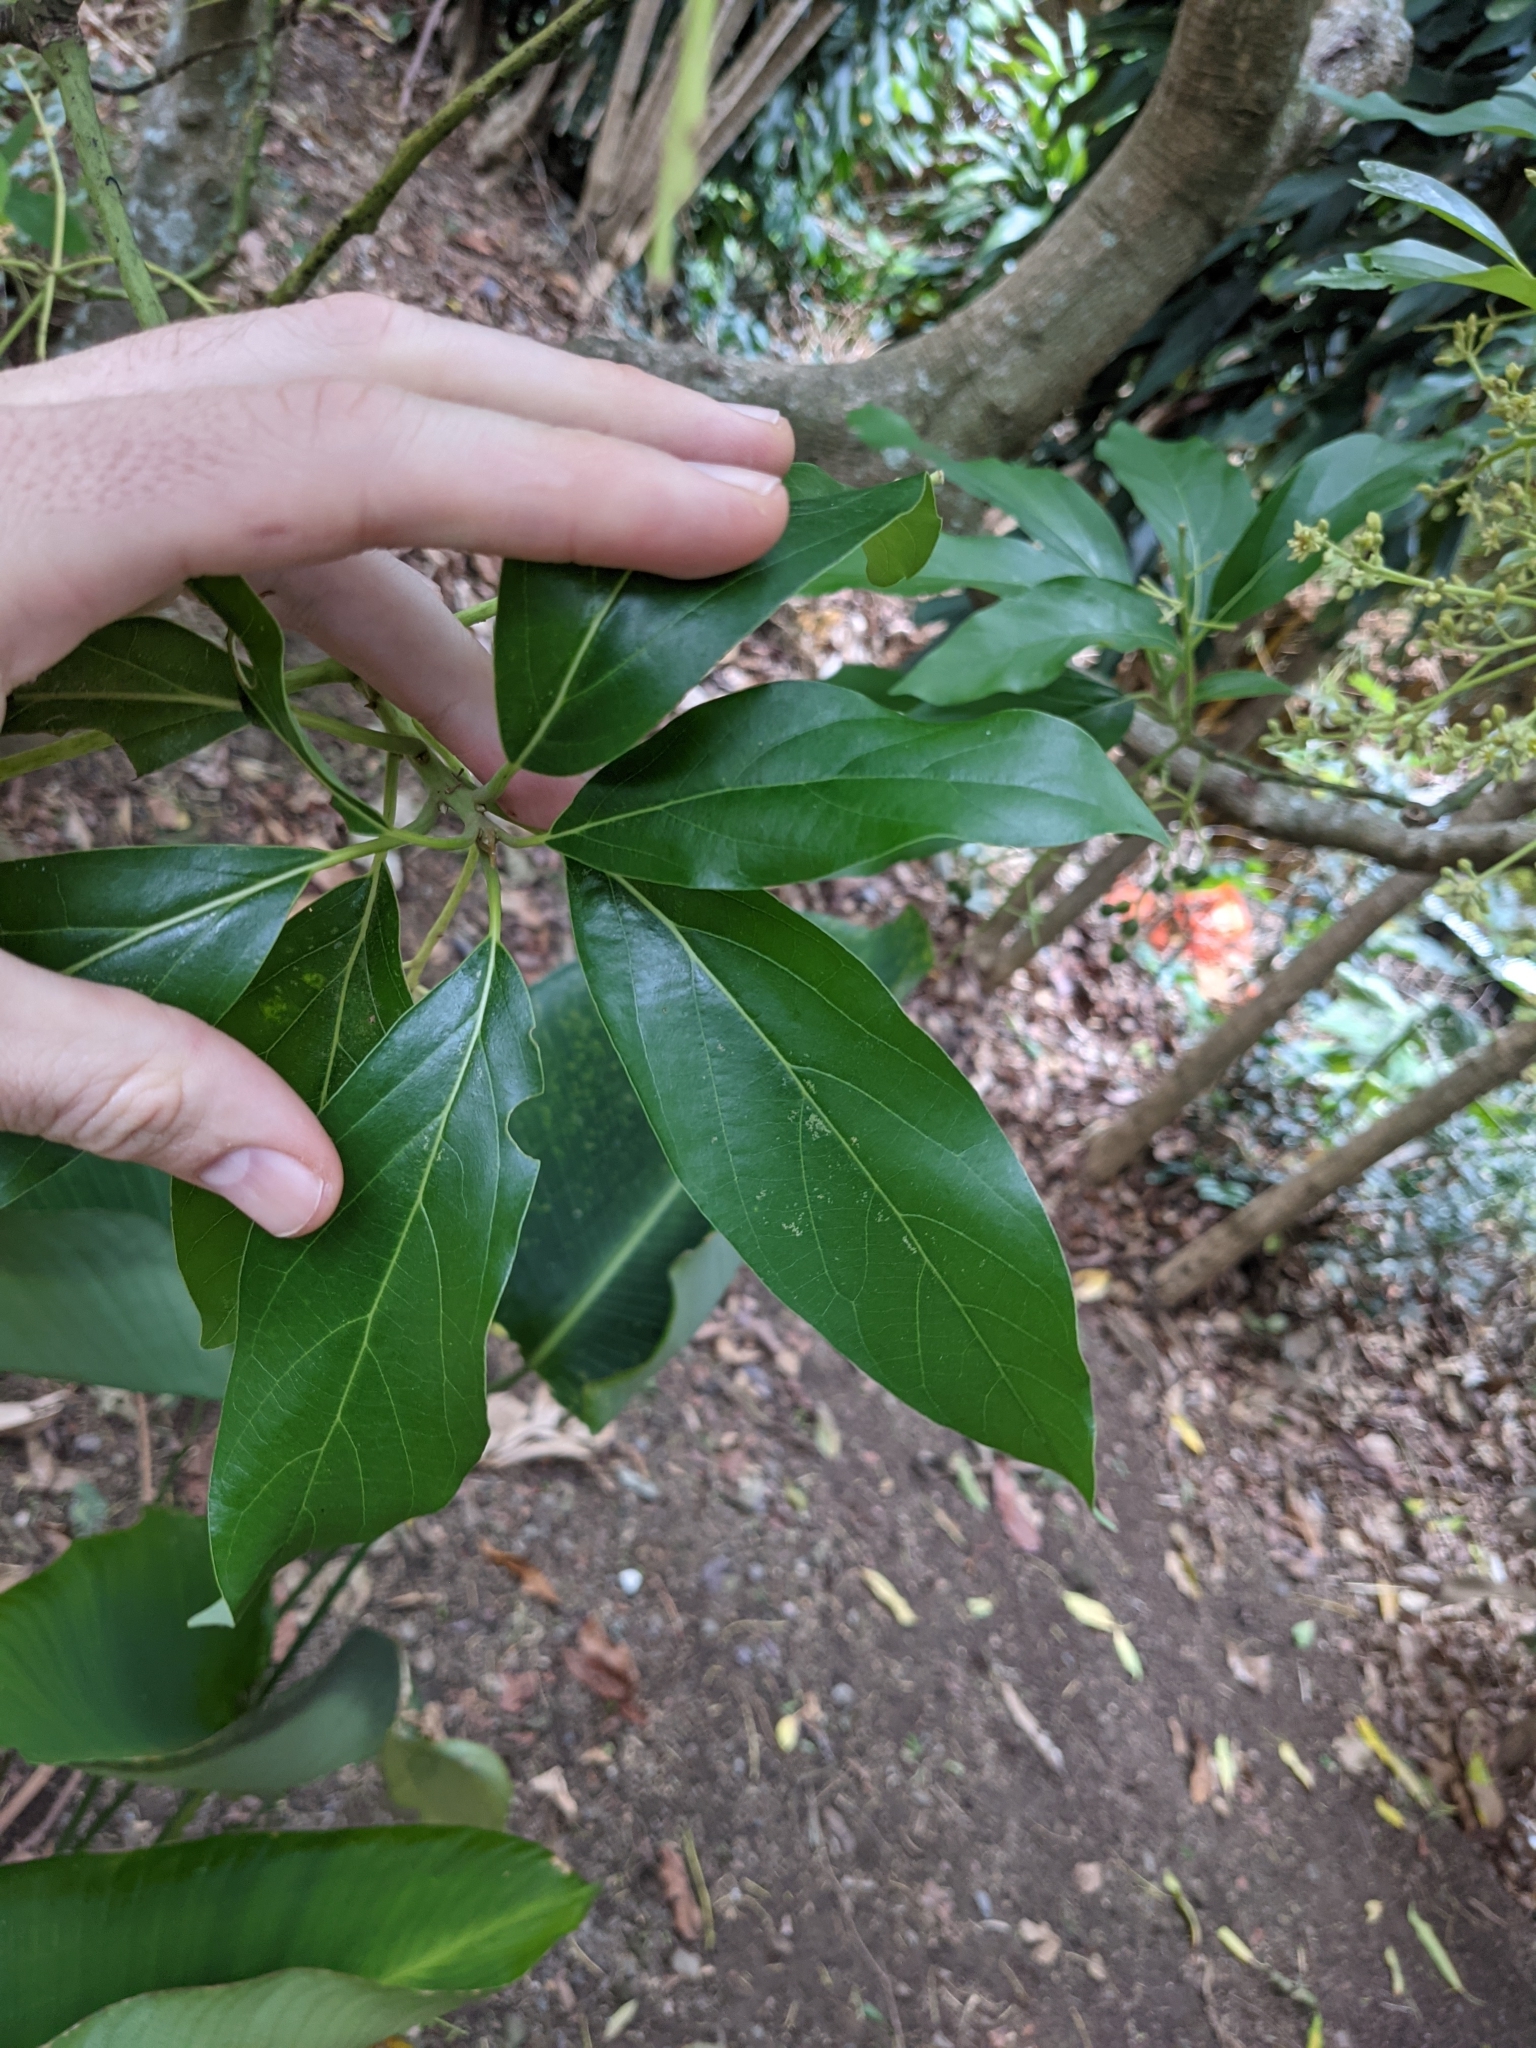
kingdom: Plantae
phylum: Tracheophyta
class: Magnoliopsida
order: Laurales
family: Lauraceae
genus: Persea
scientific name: Persea americana
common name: Avocado
